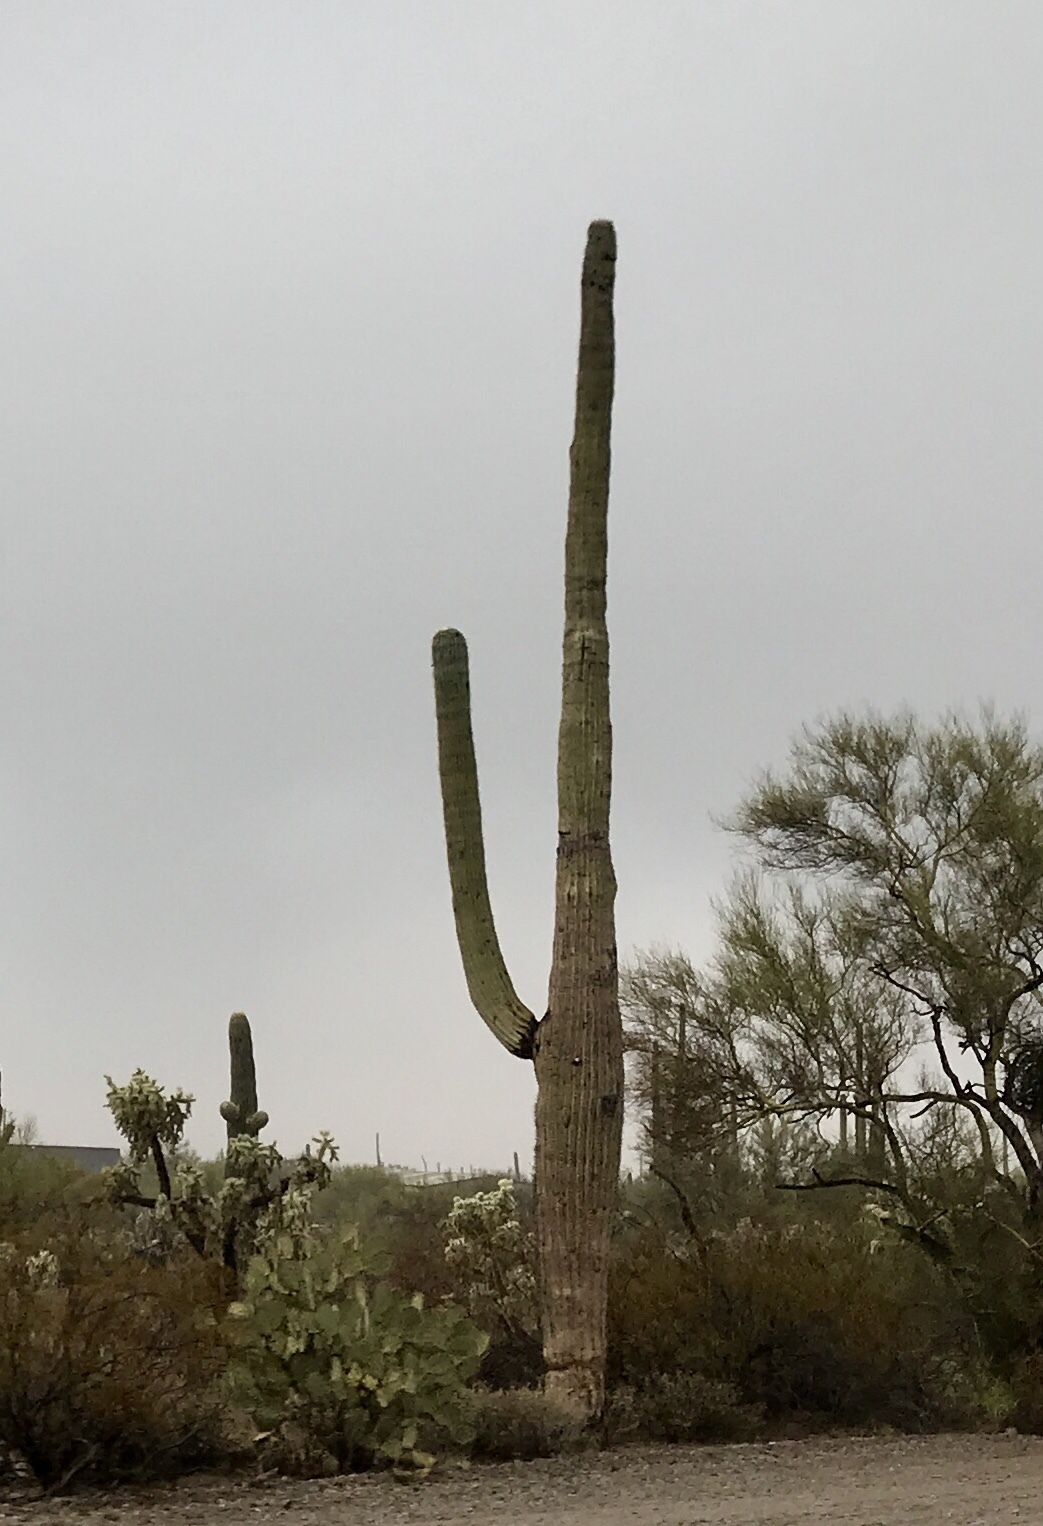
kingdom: Plantae
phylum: Tracheophyta
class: Magnoliopsida
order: Caryophyllales
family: Cactaceae
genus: Carnegiea
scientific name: Carnegiea gigantea
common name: Saguaro
